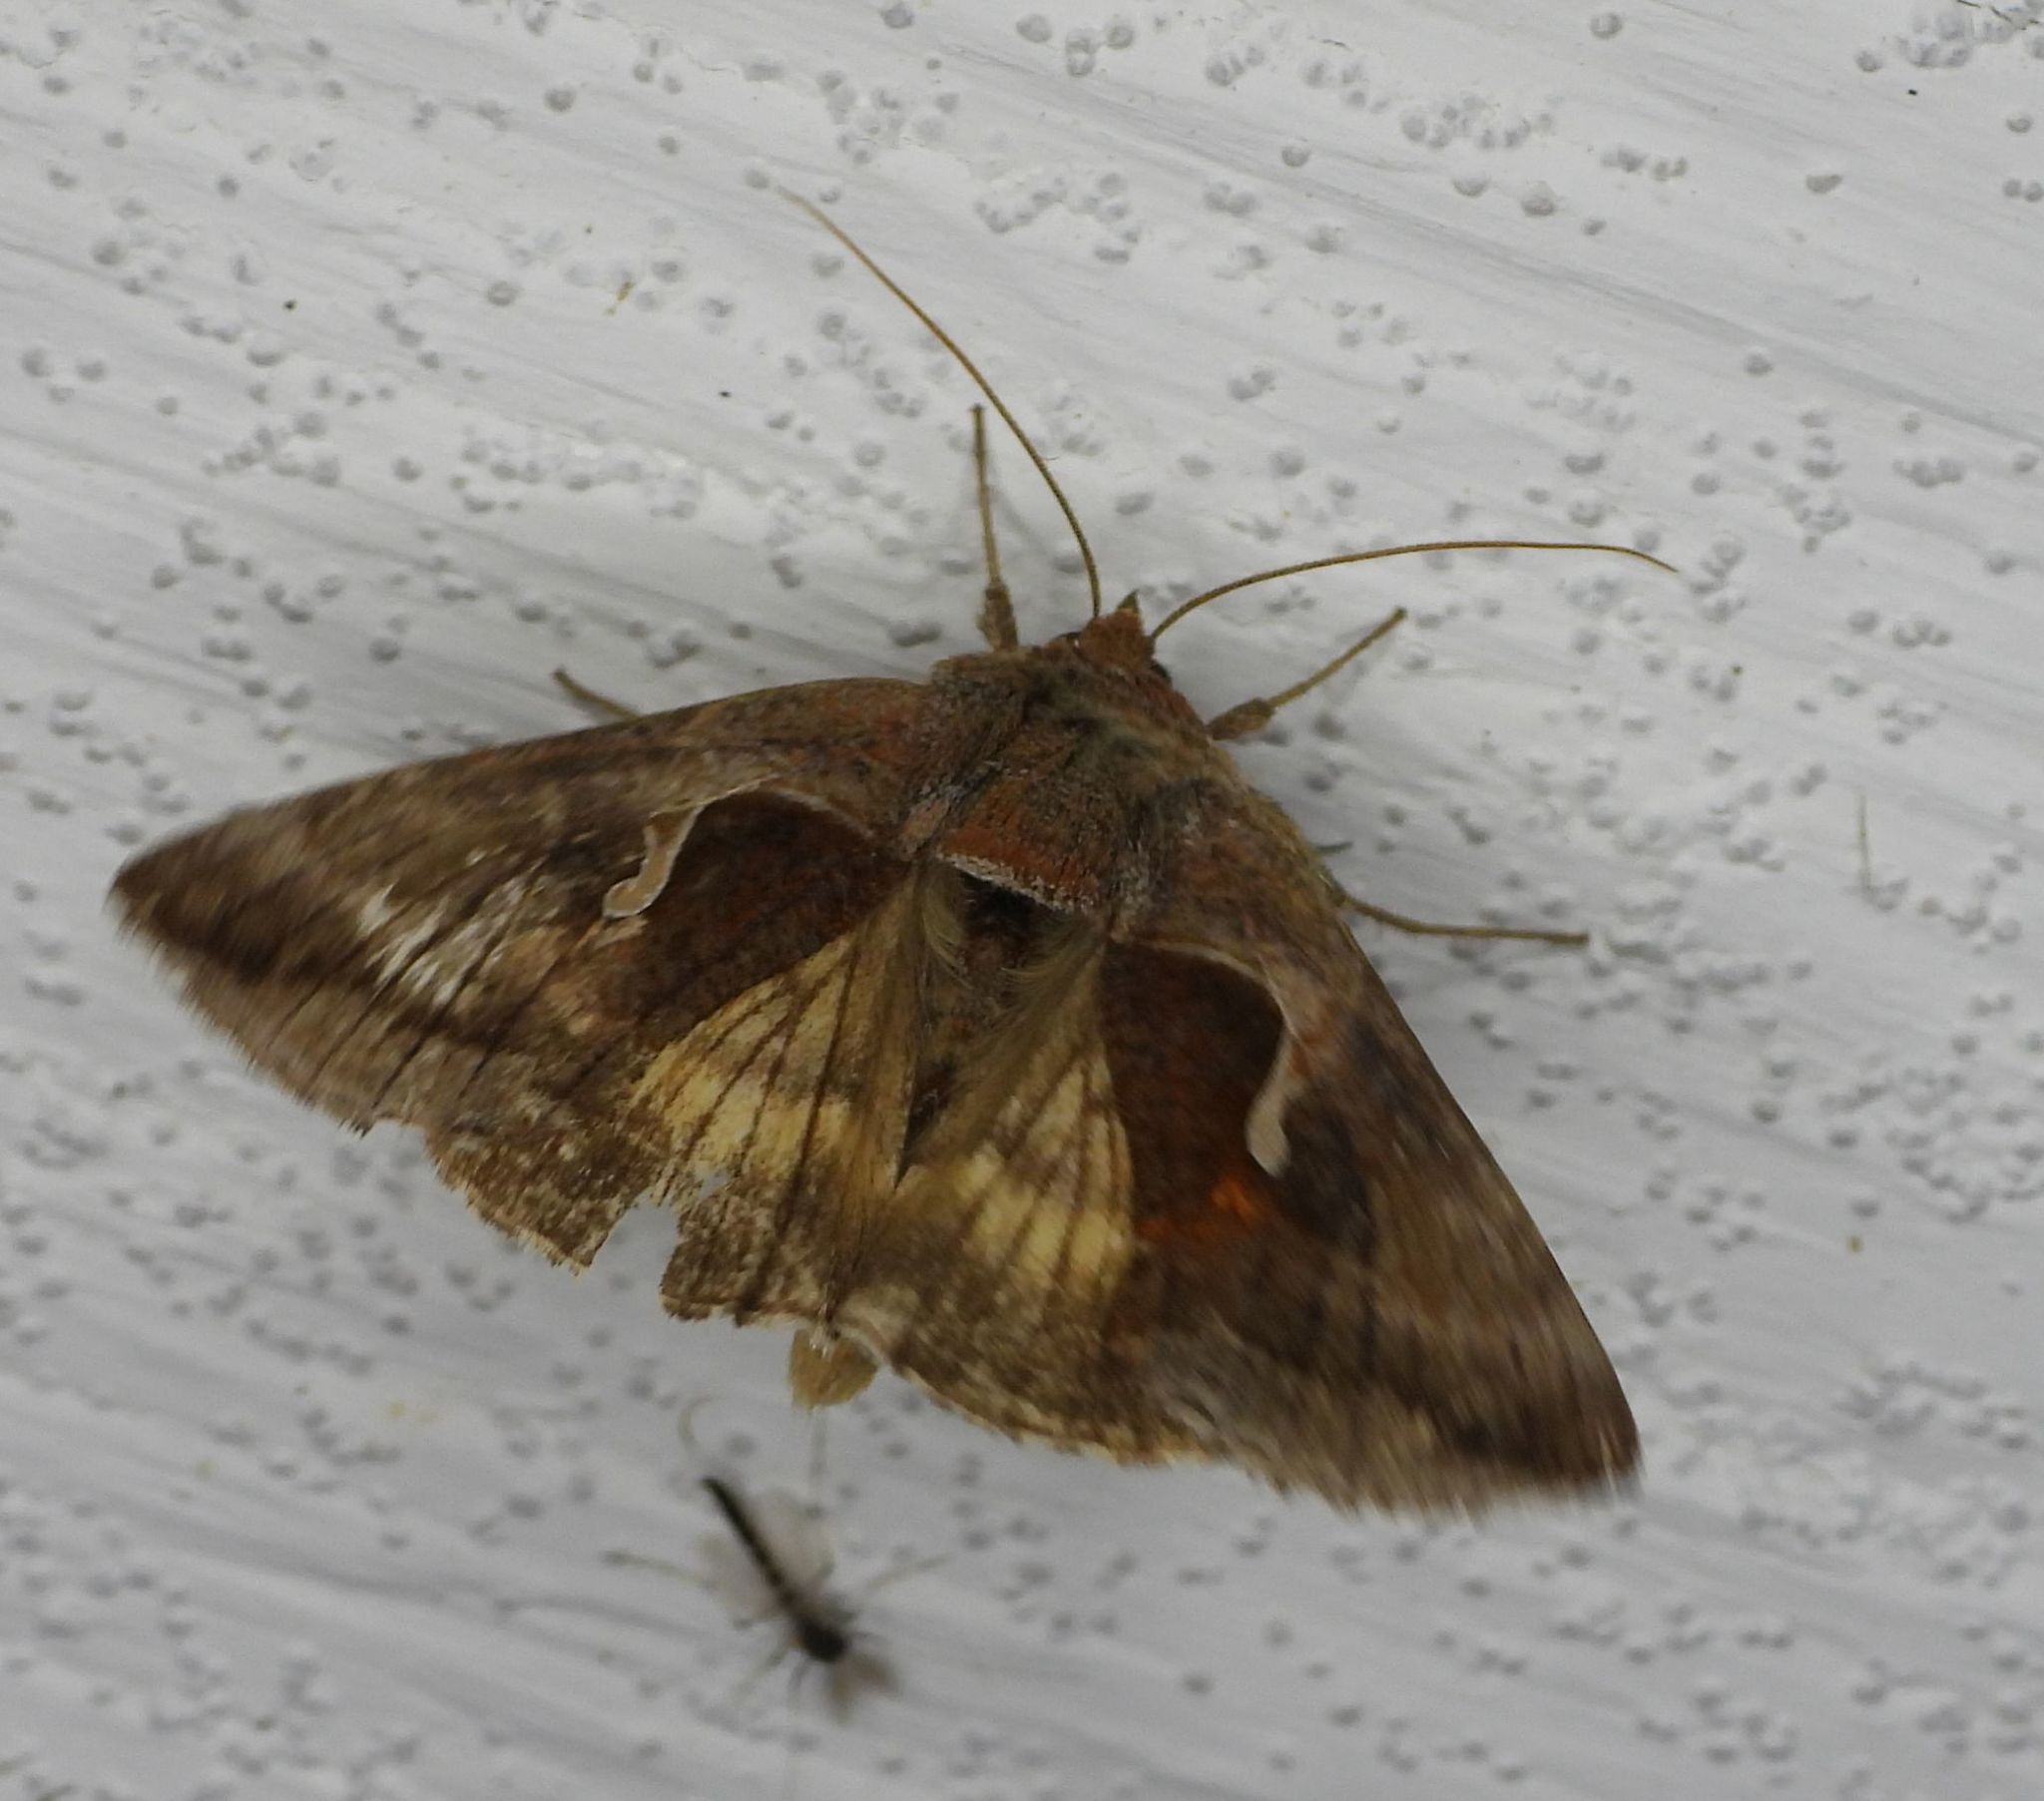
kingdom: Animalia
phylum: Arthropoda
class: Insecta
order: Lepidoptera
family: Noctuidae
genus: Anagrapha
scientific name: Anagrapha falcifera
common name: Celery looper
